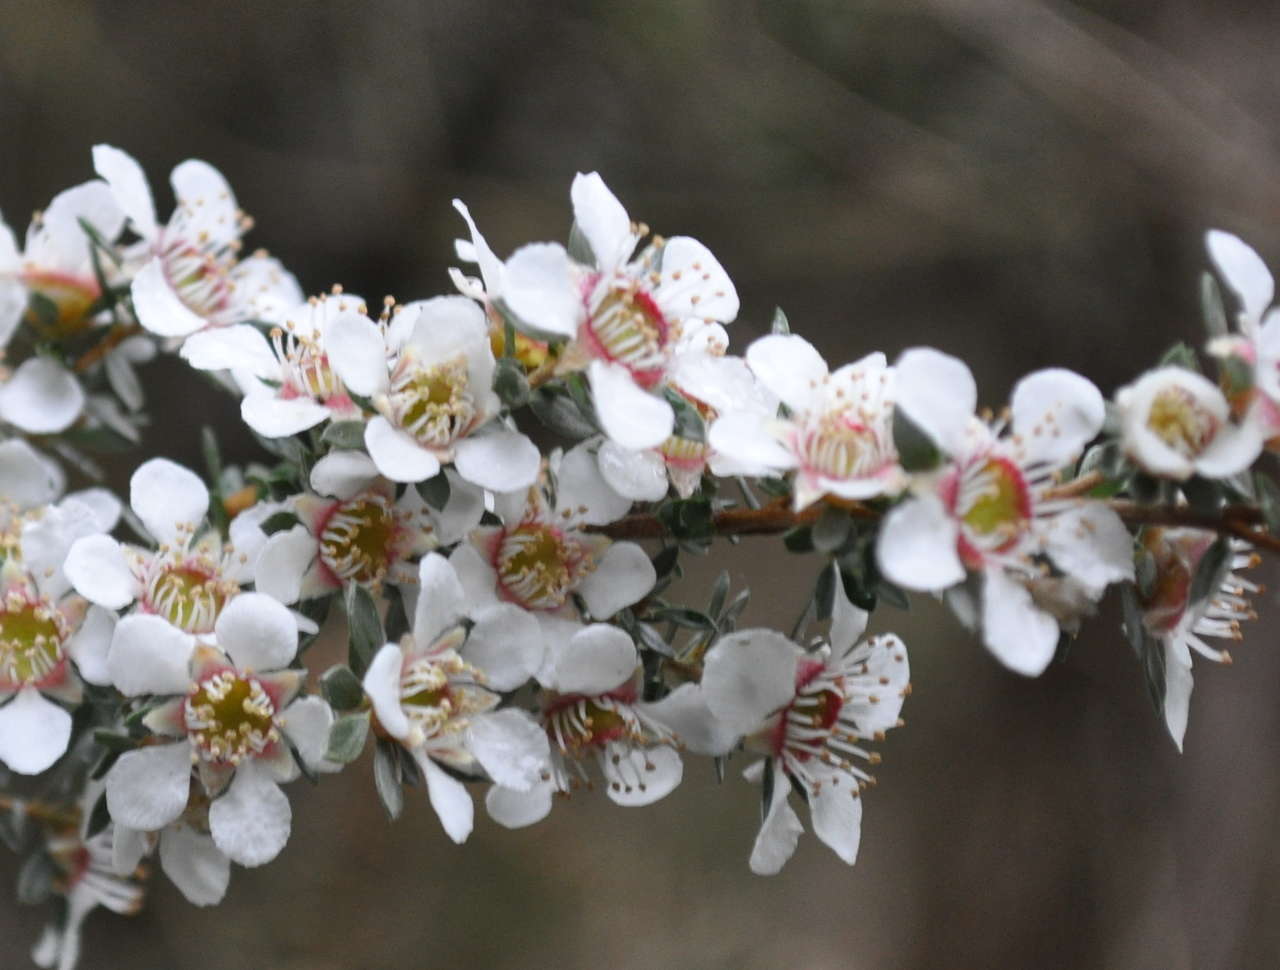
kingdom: Plantae
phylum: Tracheophyta
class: Magnoliopsida
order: Myrtales
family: Myrtaceae
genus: Leptospermum
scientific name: Leptospermum lanigerum
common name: Woolly tea-tree
